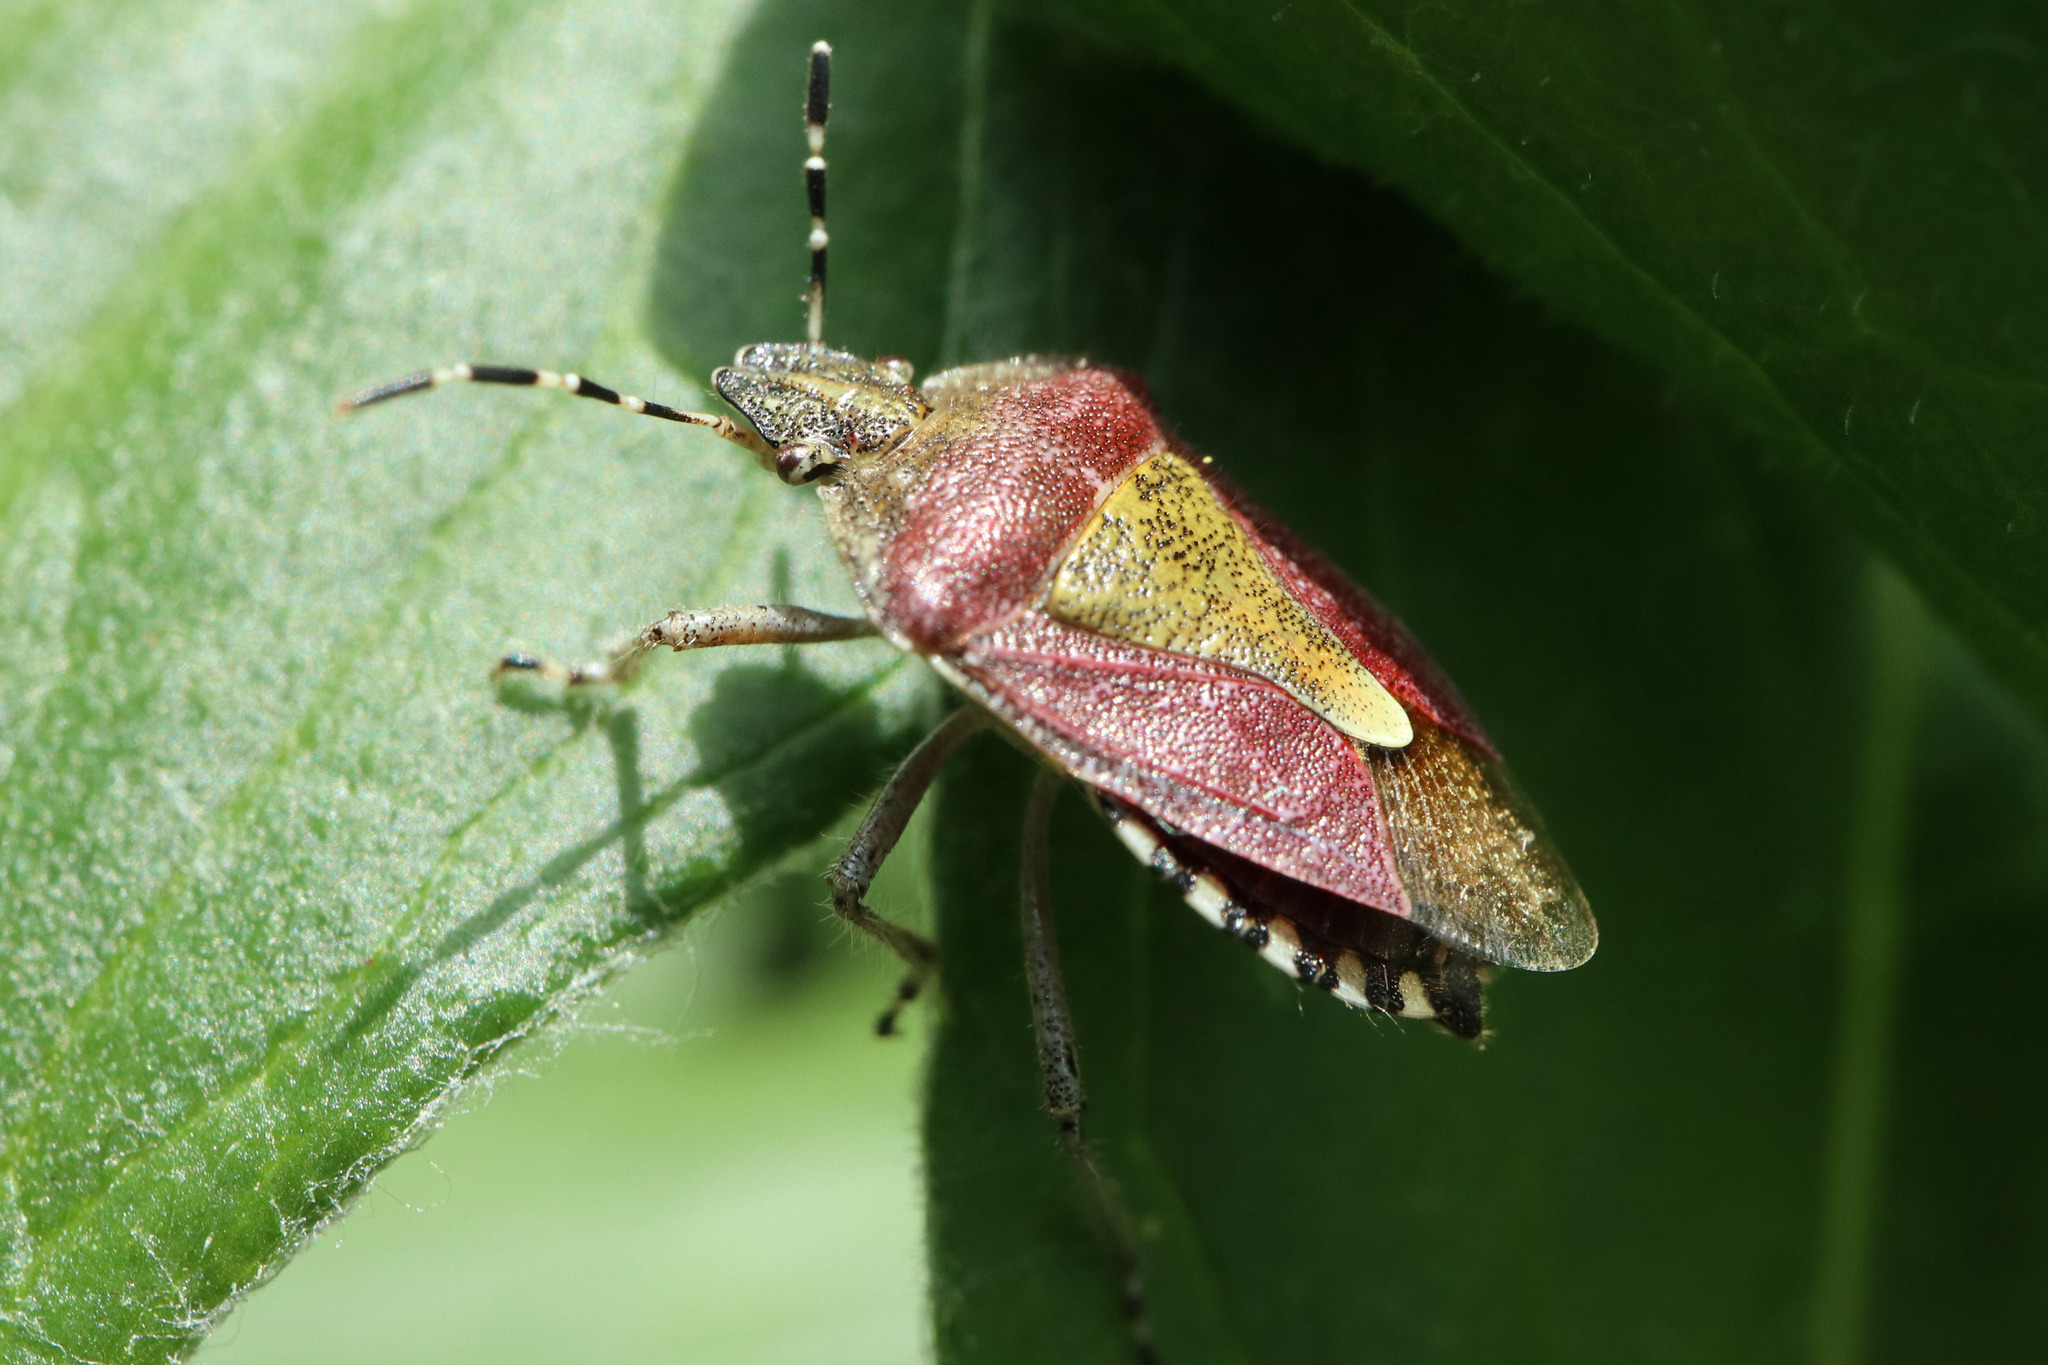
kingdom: Animalia
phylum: Arthropoda
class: Insecta
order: Hemiptera
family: Pentatomidae
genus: Dolycoris
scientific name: Dolycoris baccarum
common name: Sloe bug
